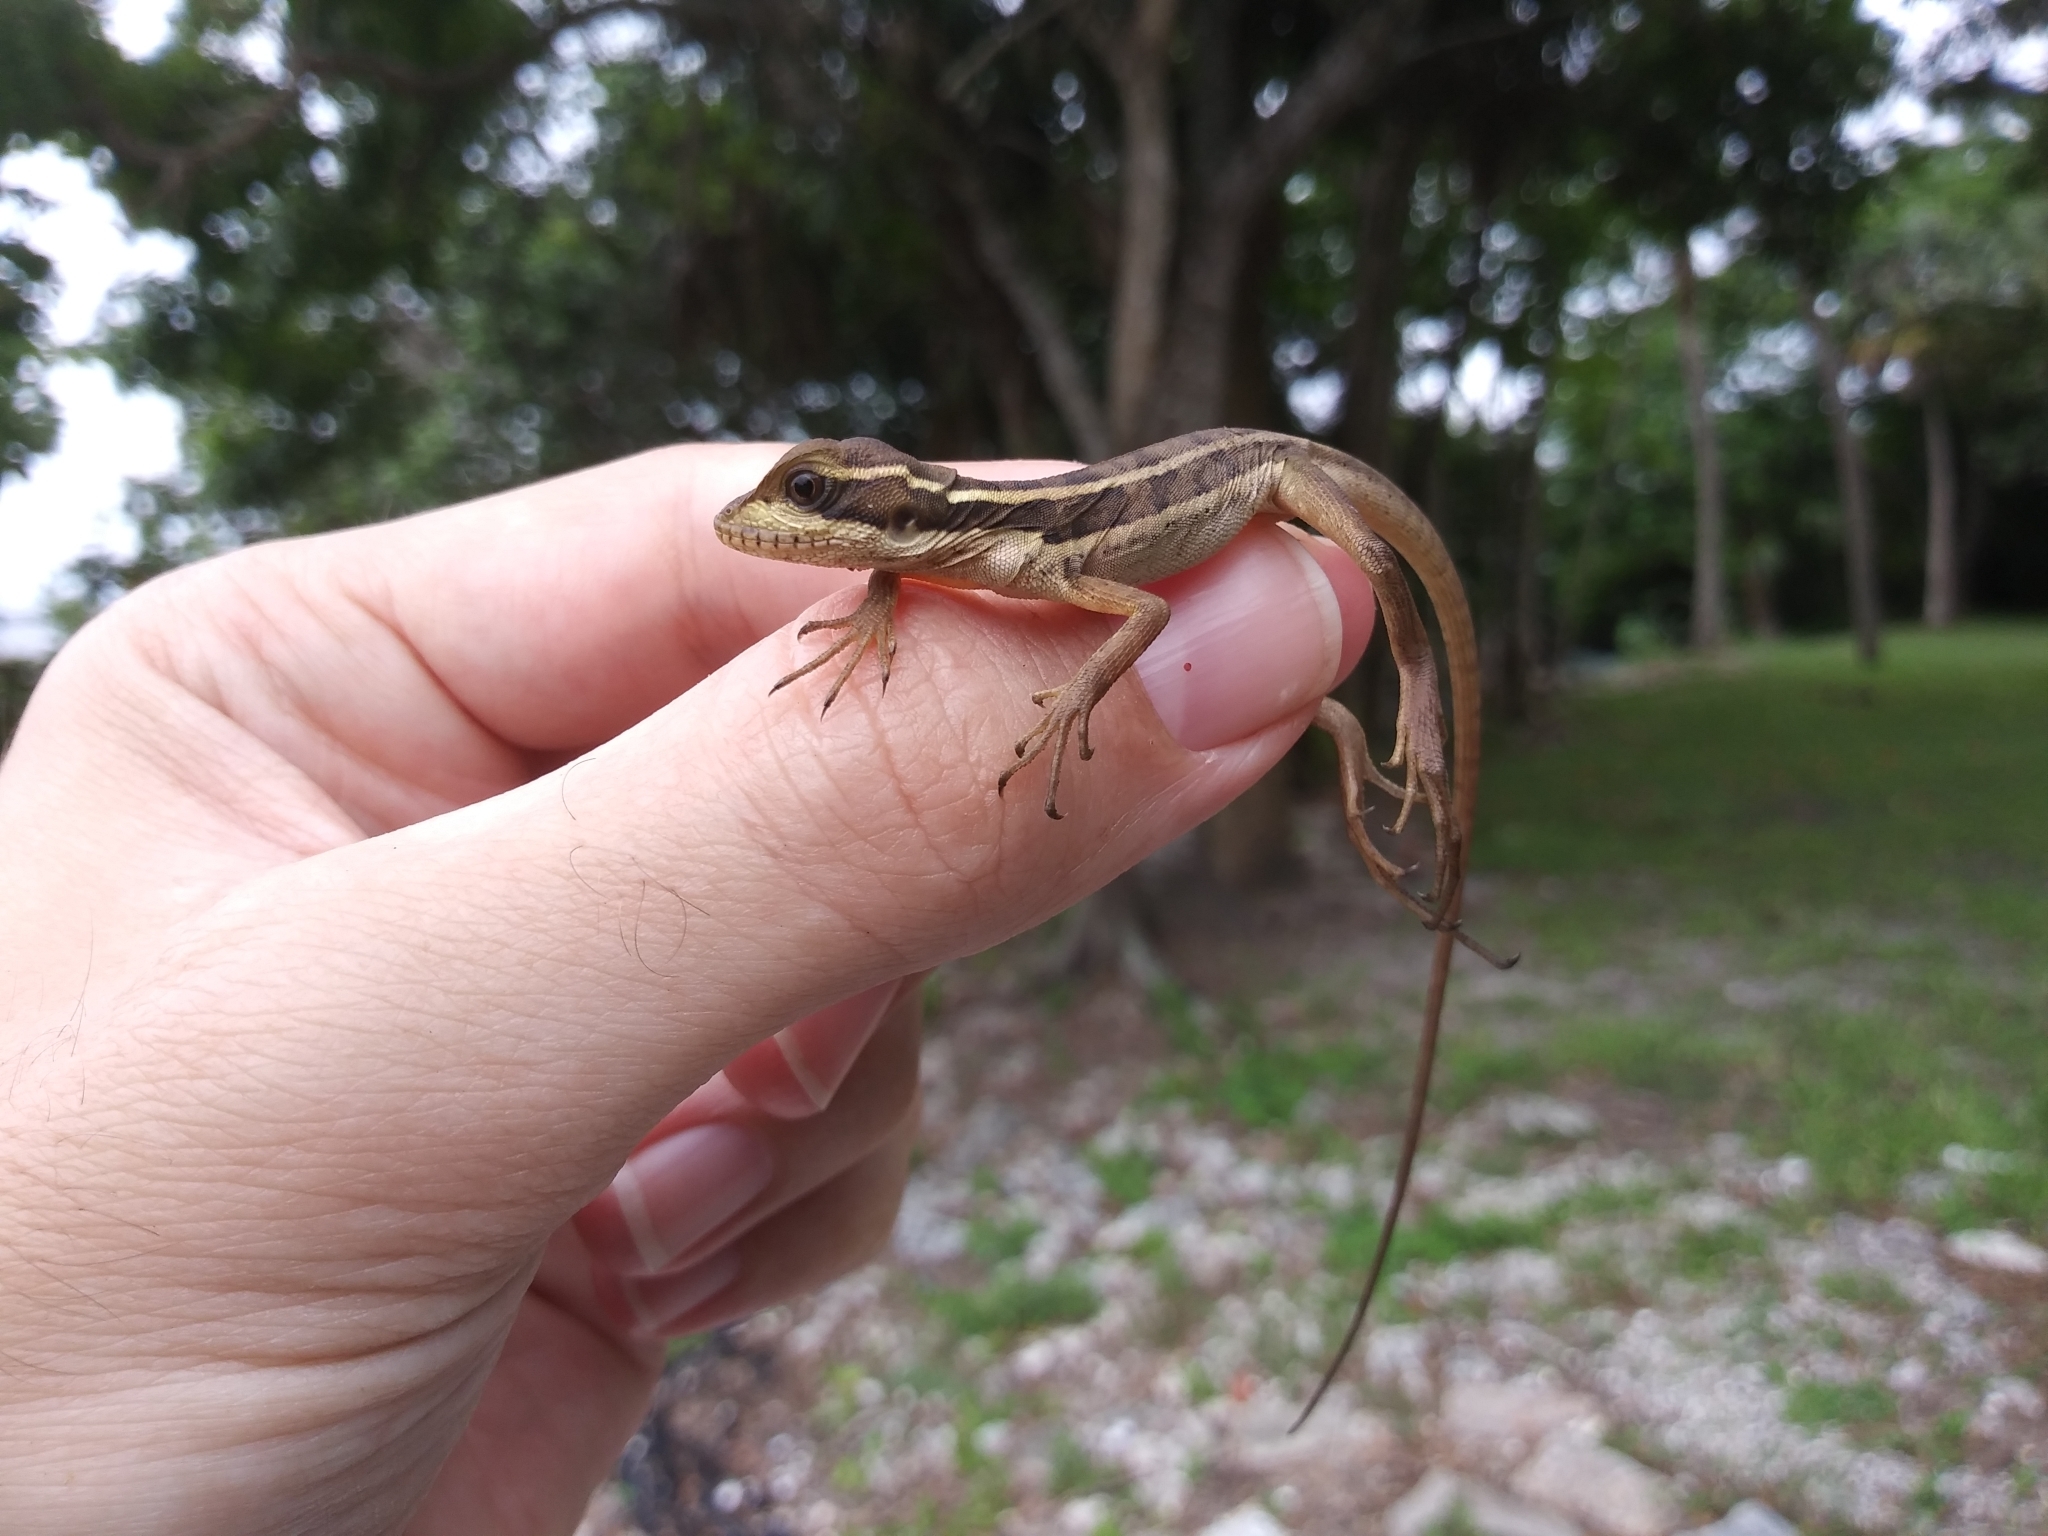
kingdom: Animalia
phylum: Chordata
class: Squamata
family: Corytophanidae
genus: Basiliscus
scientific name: Basiliscus vittatus
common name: Brown basilisk
